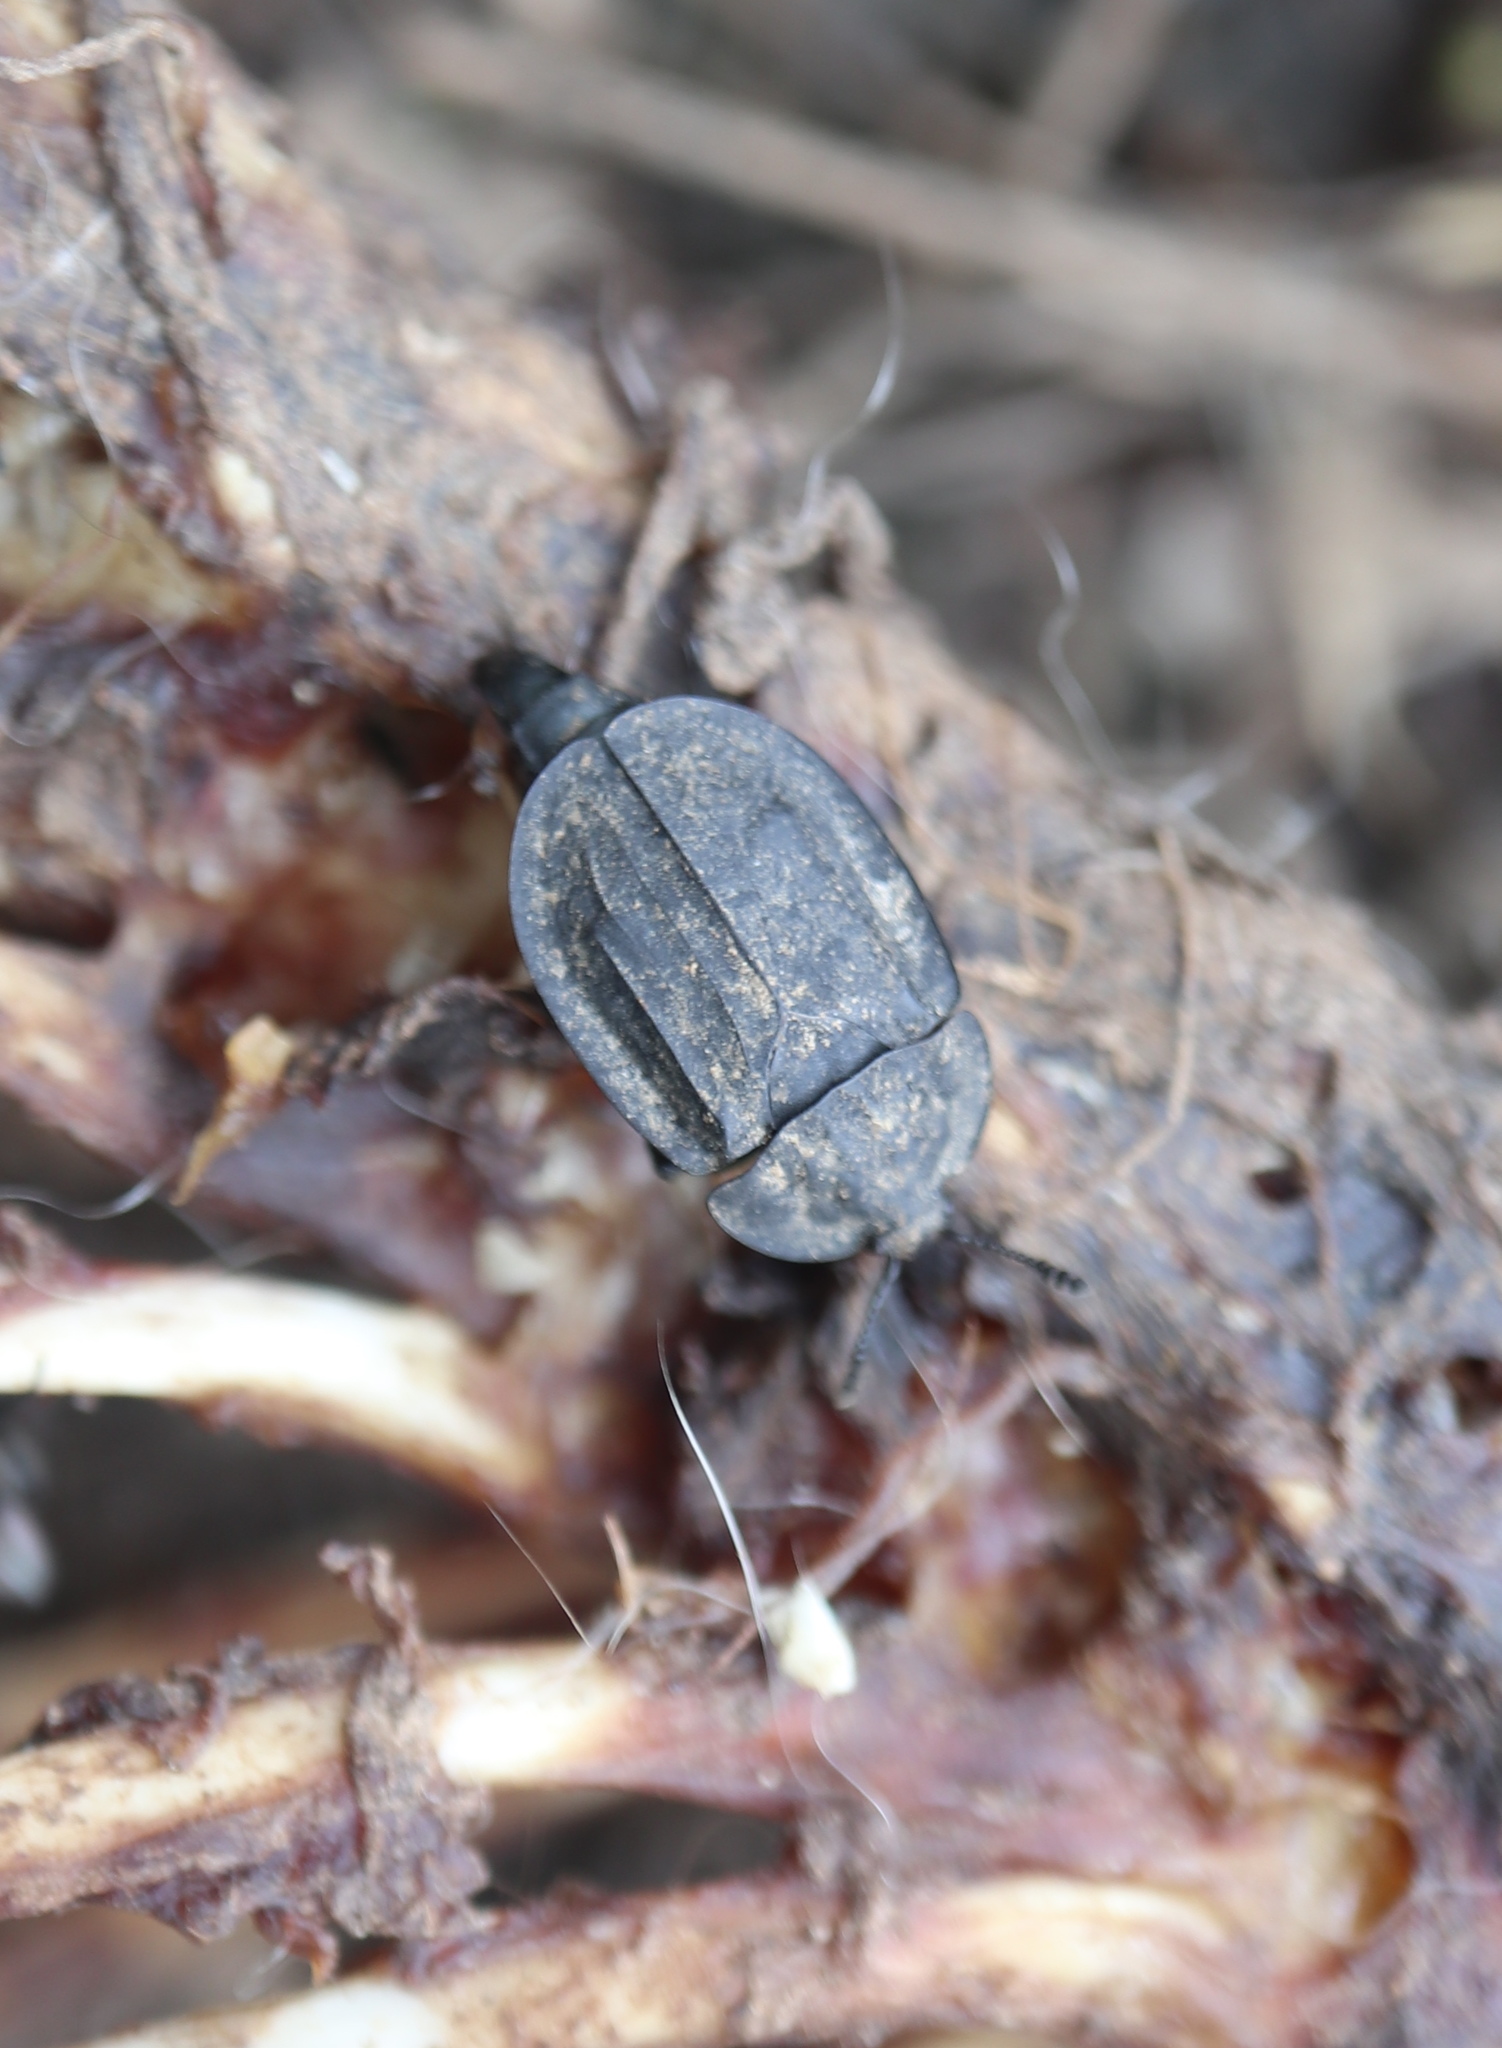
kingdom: Animalia
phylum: Arthropoda
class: Insecta
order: Coleoptera
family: Staphylinidae
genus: Oiceoptoma
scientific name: Oiceoptoma inaequale
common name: Ridged carrion beetle
